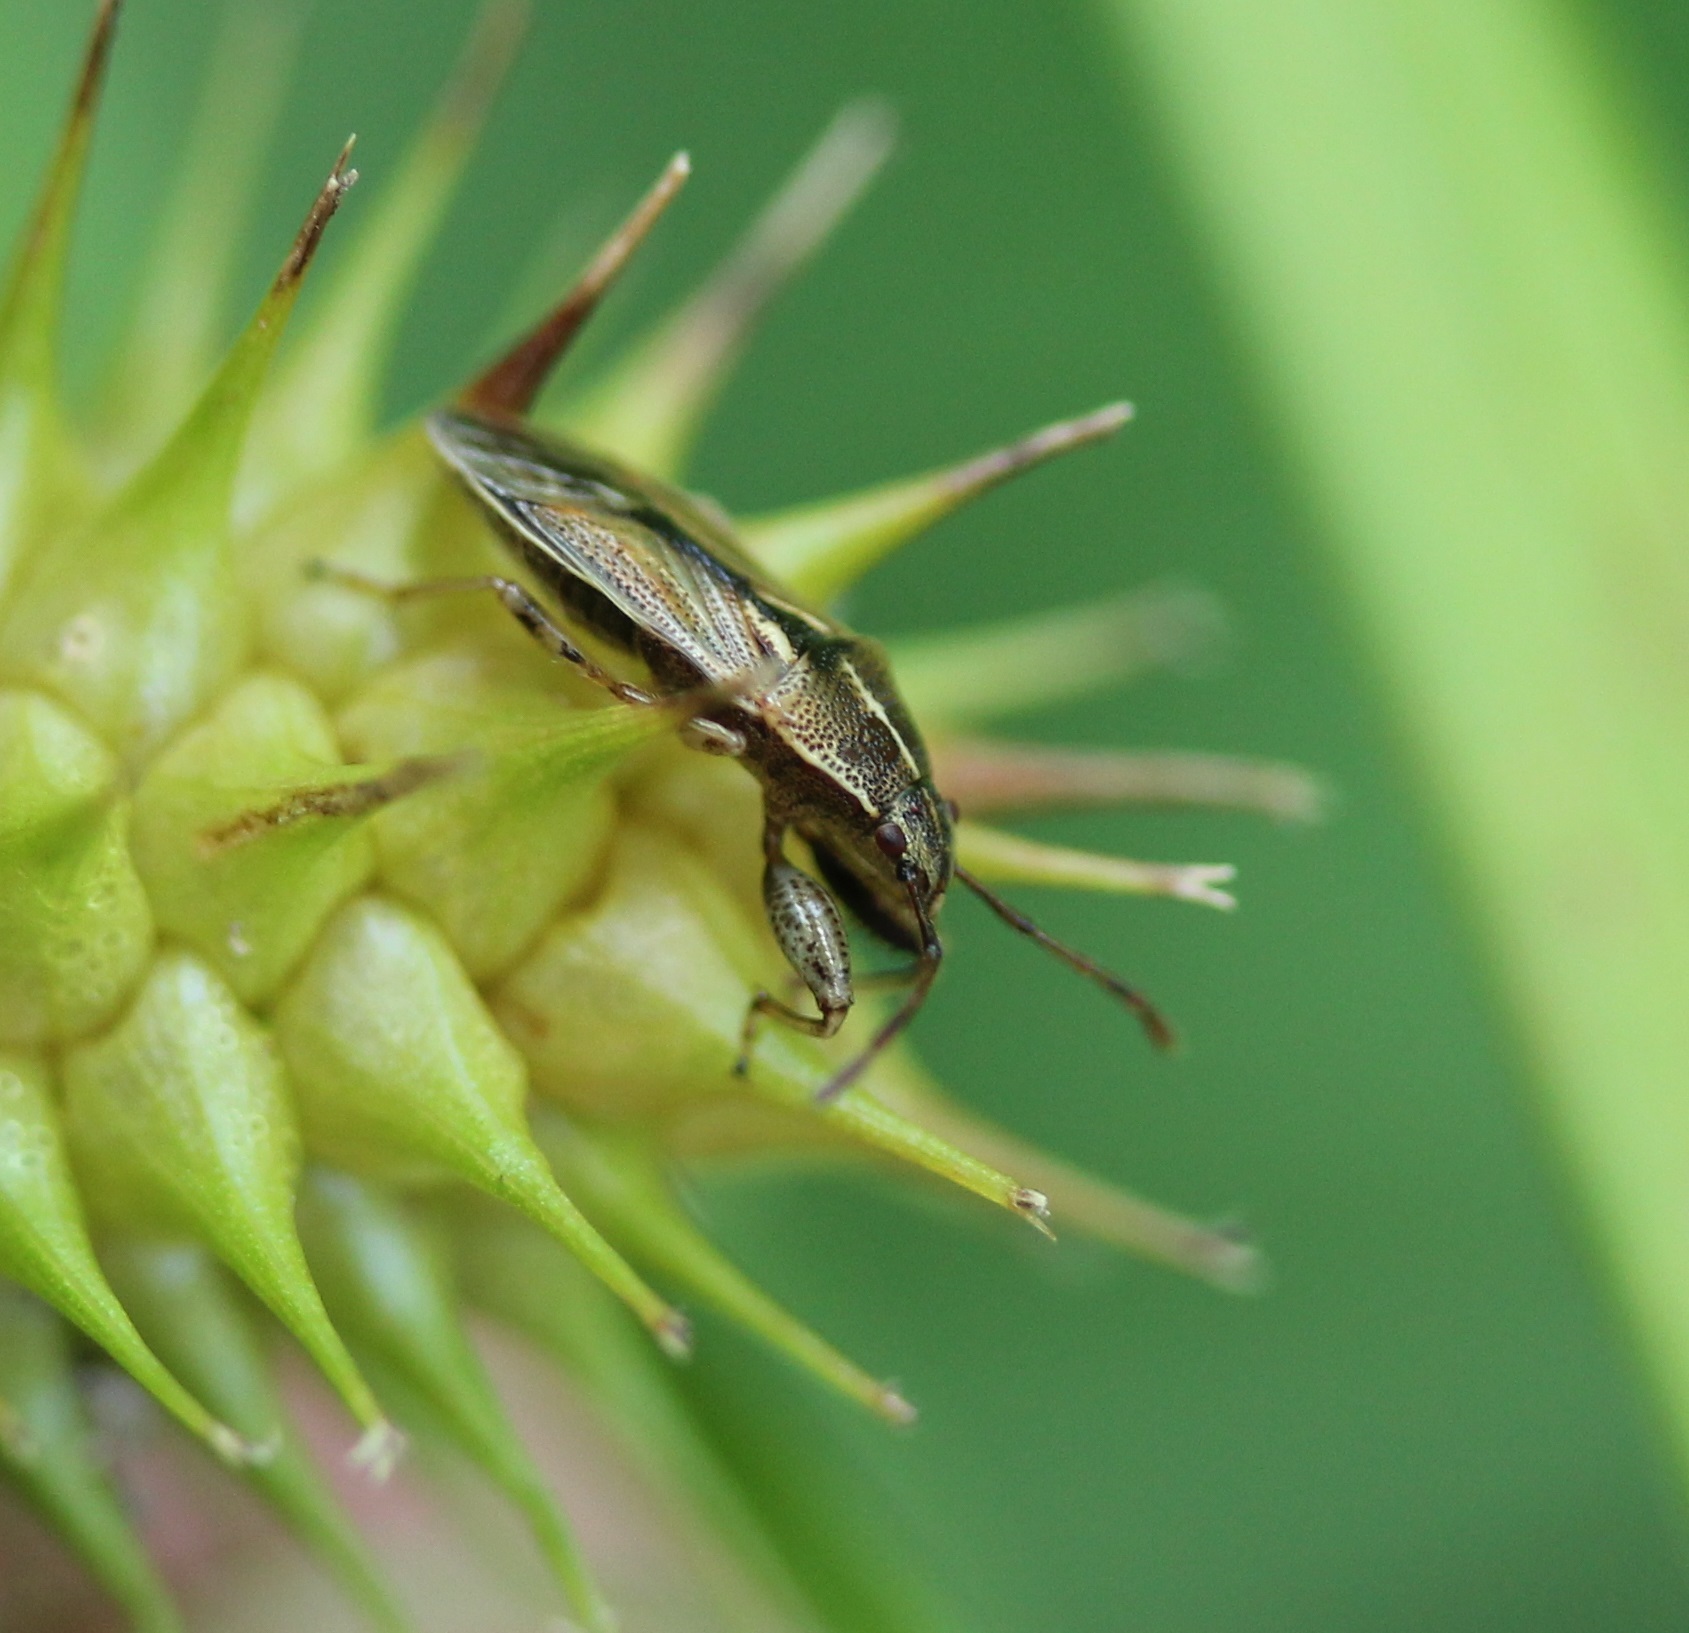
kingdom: Animalia
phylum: Arthropoda
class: Insecta
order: Hemiptera
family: Pachygronthidae
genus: Oedancala
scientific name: Oedancala dorsalis
